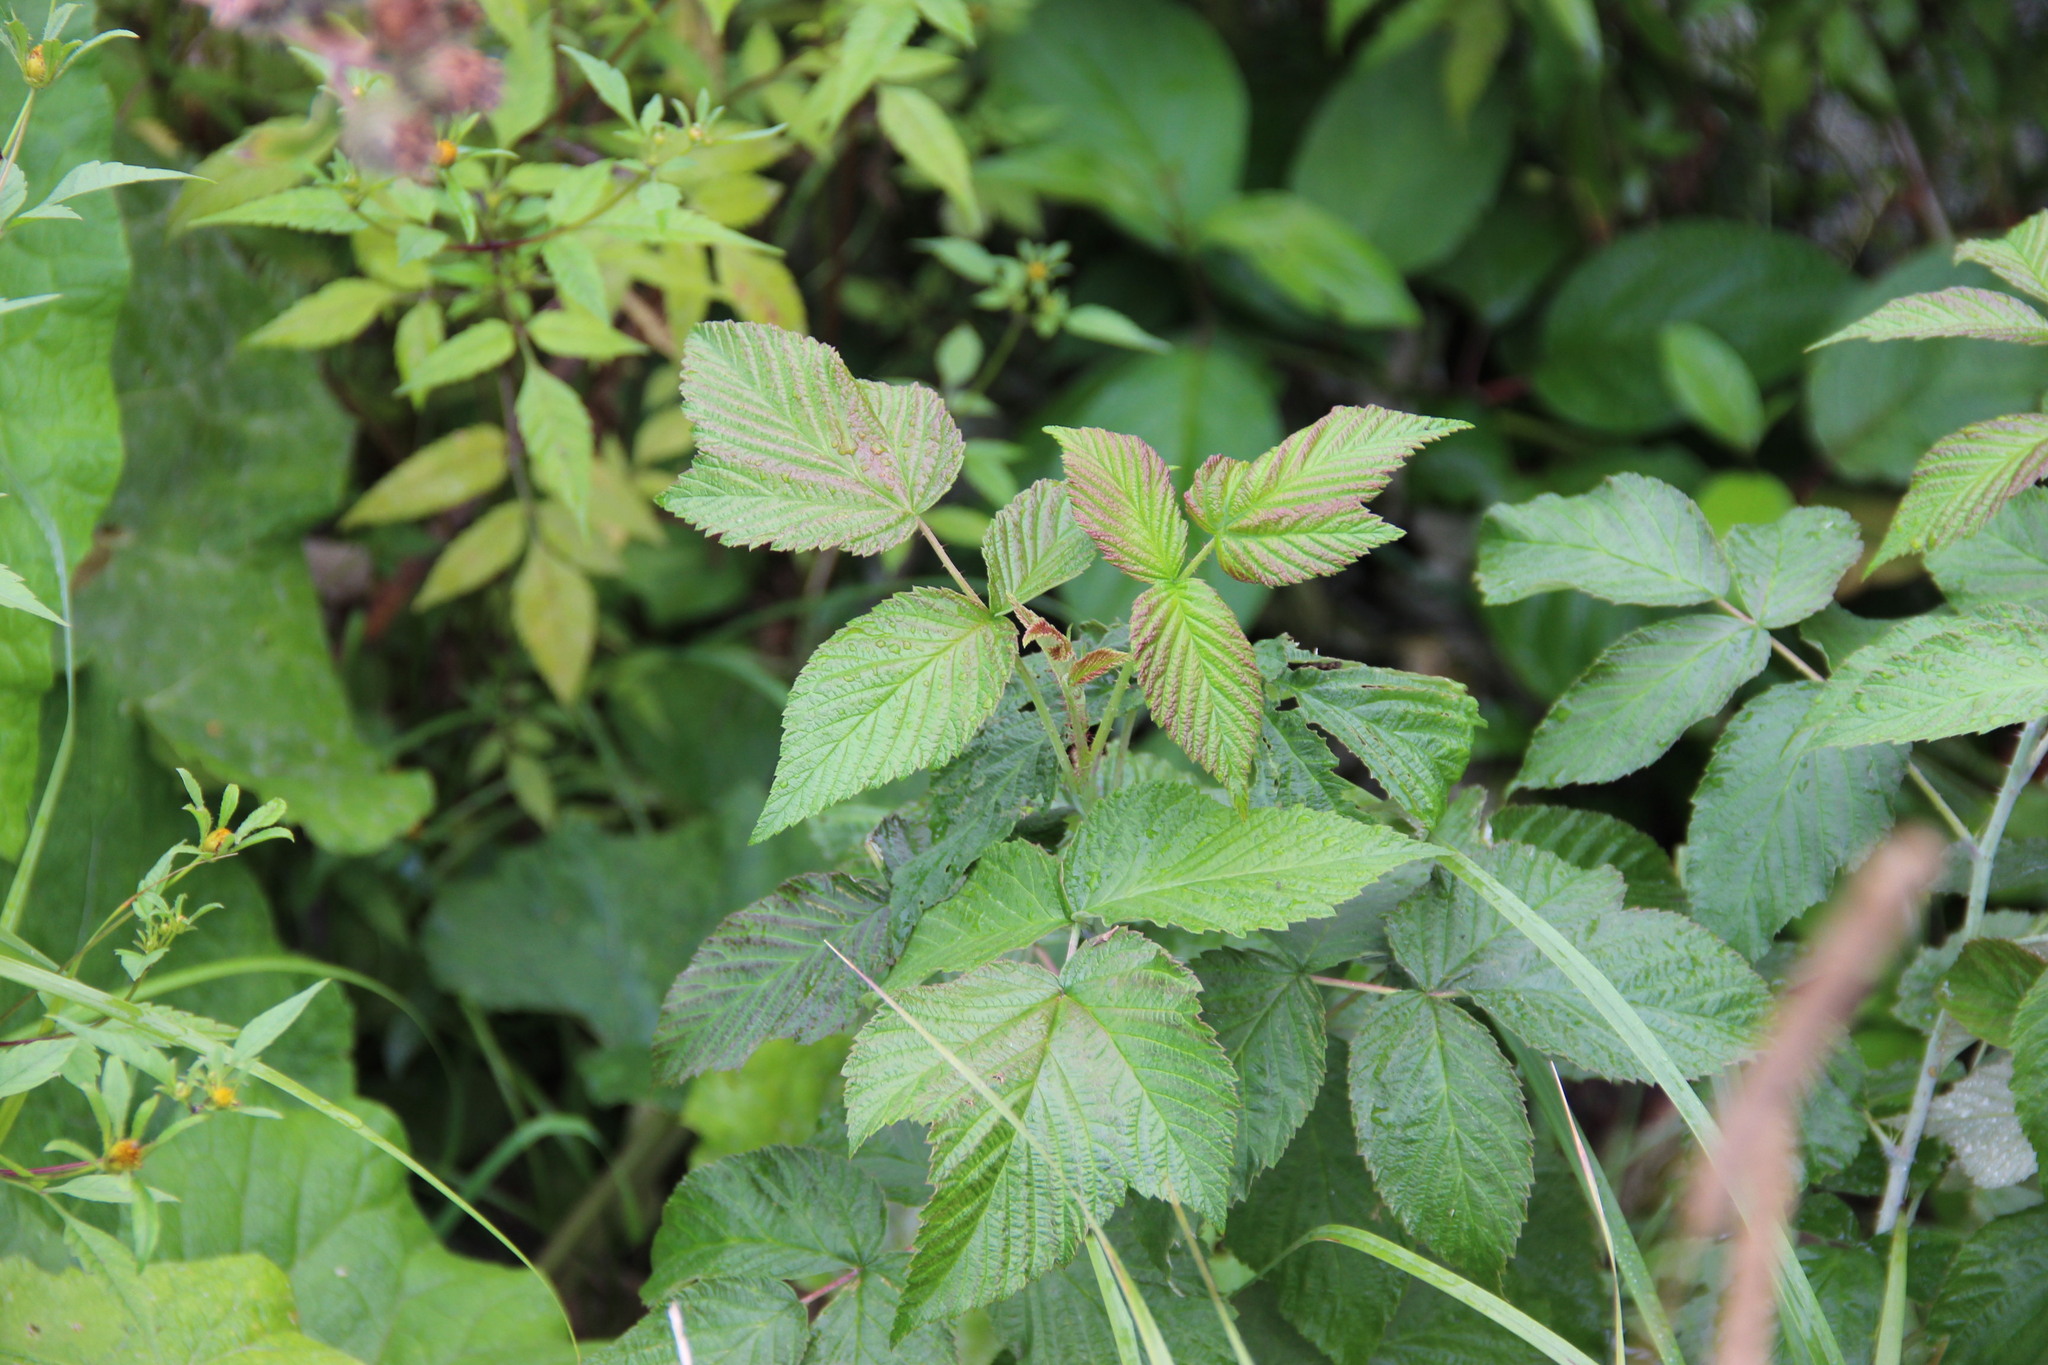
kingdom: Plantae
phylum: Tracheophyta
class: Magnoliopsida
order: Rosales
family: Rosaceae
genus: Rubus
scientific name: Rubus idaeus
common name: Raspberry
